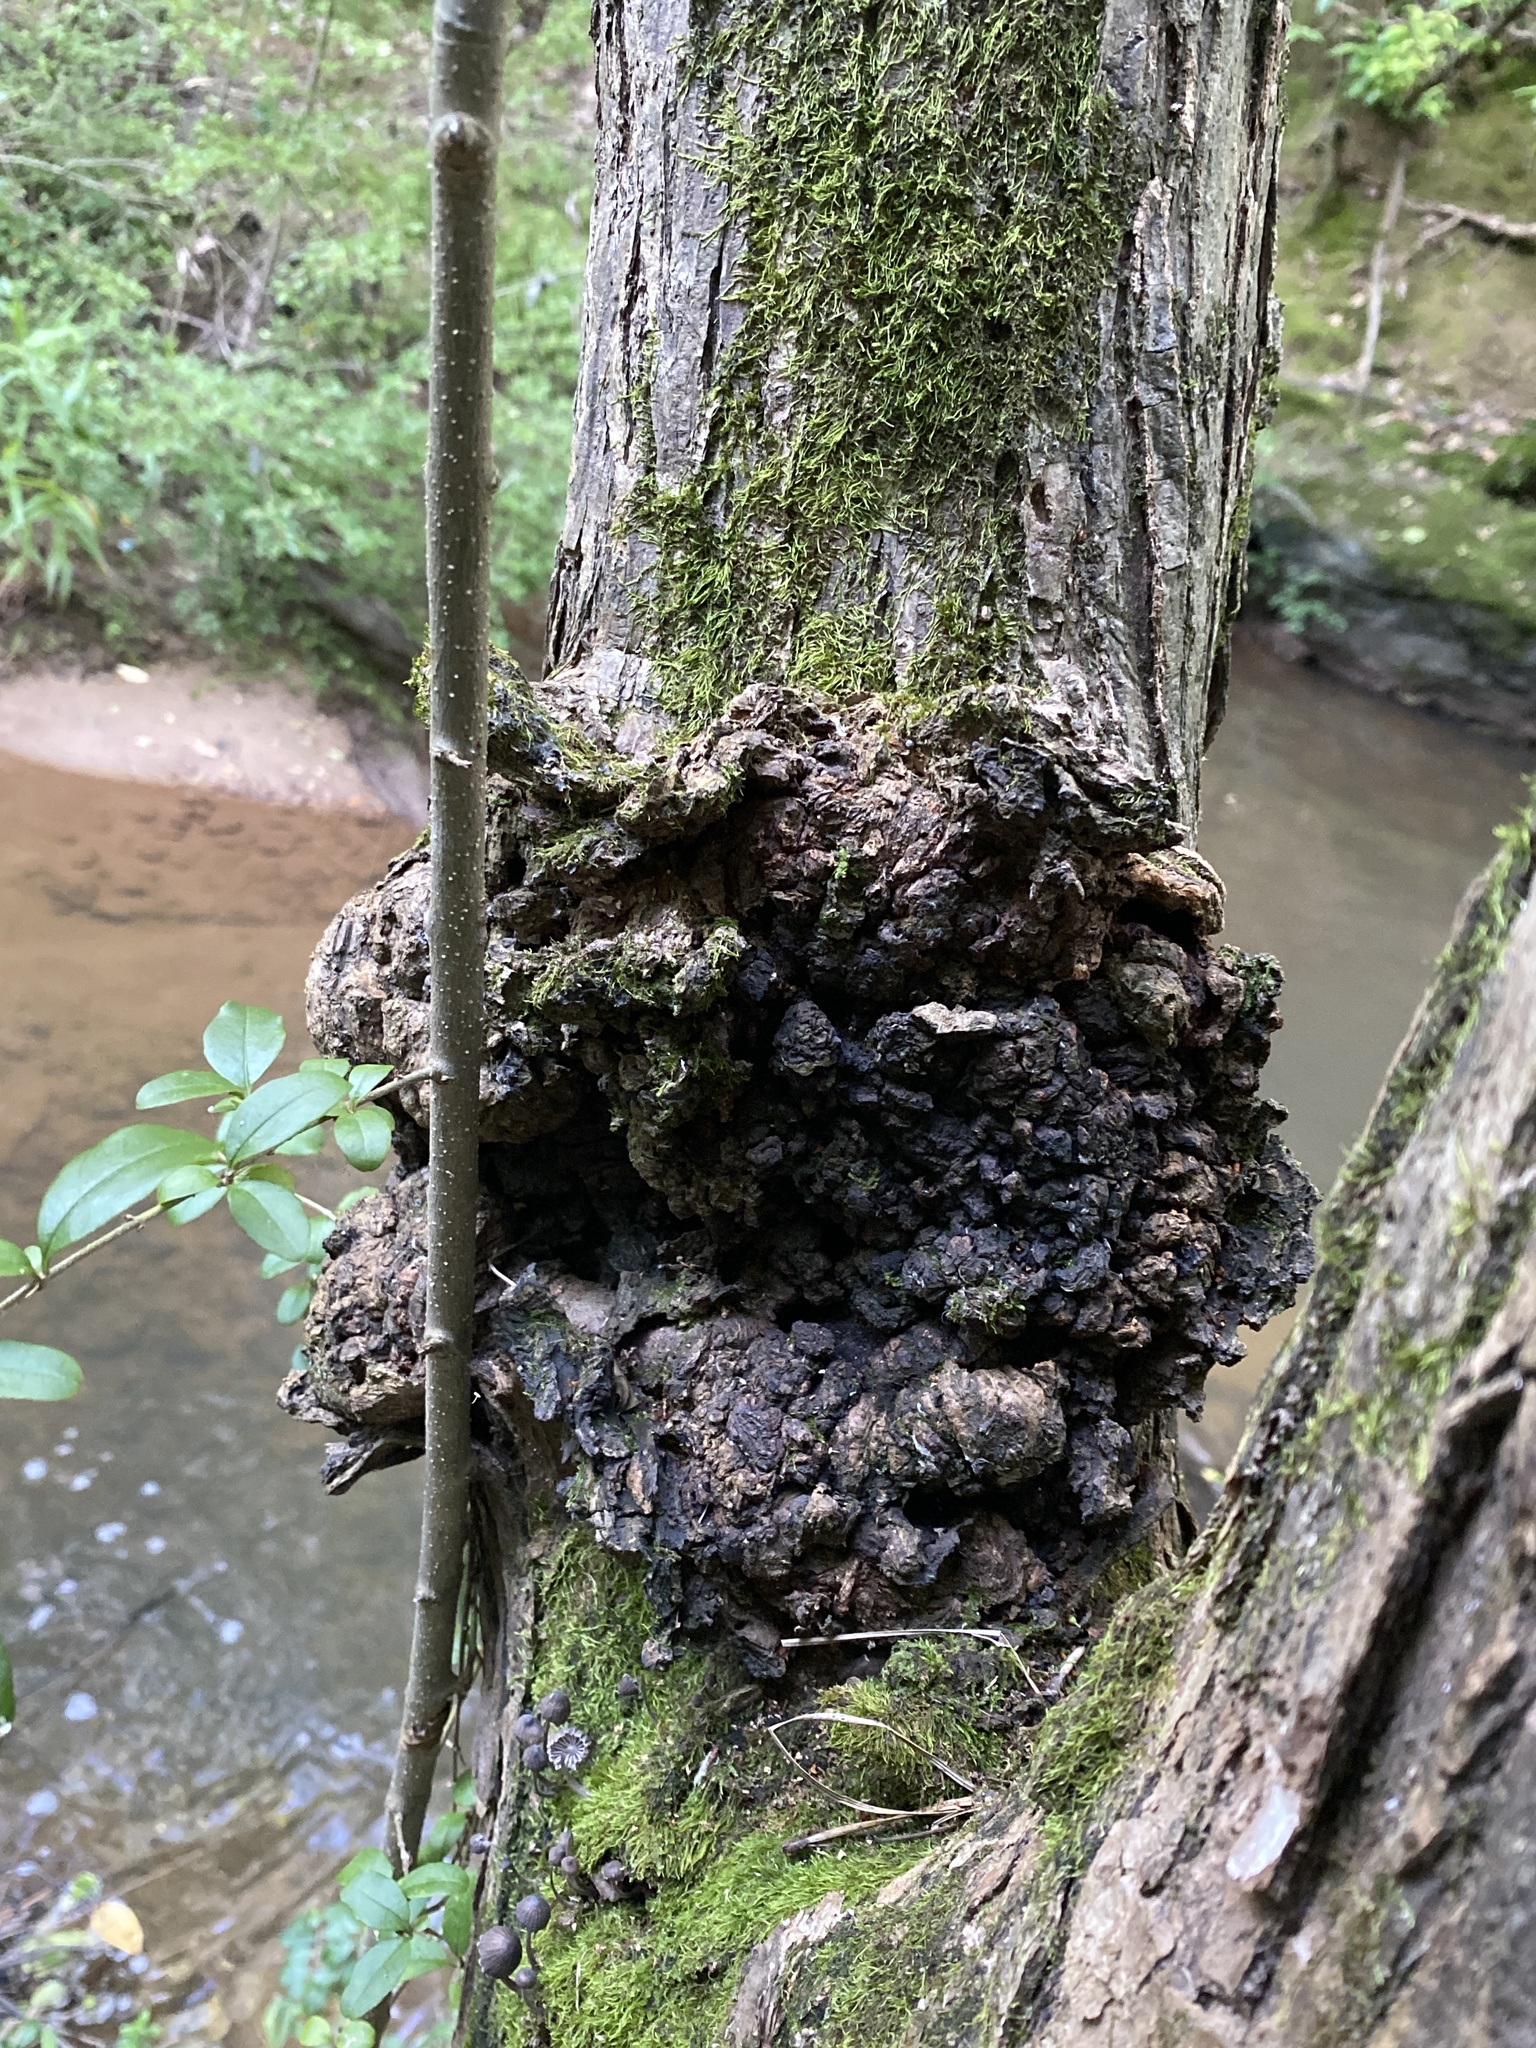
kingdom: Bacteria
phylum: Proteobacteria
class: Alphaproteobacteria
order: Rhizobiales
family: Rhizobiaceae
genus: Rhizobium
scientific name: Rhizobium Agrobacterium radiobacter
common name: Bacterial crown gall
